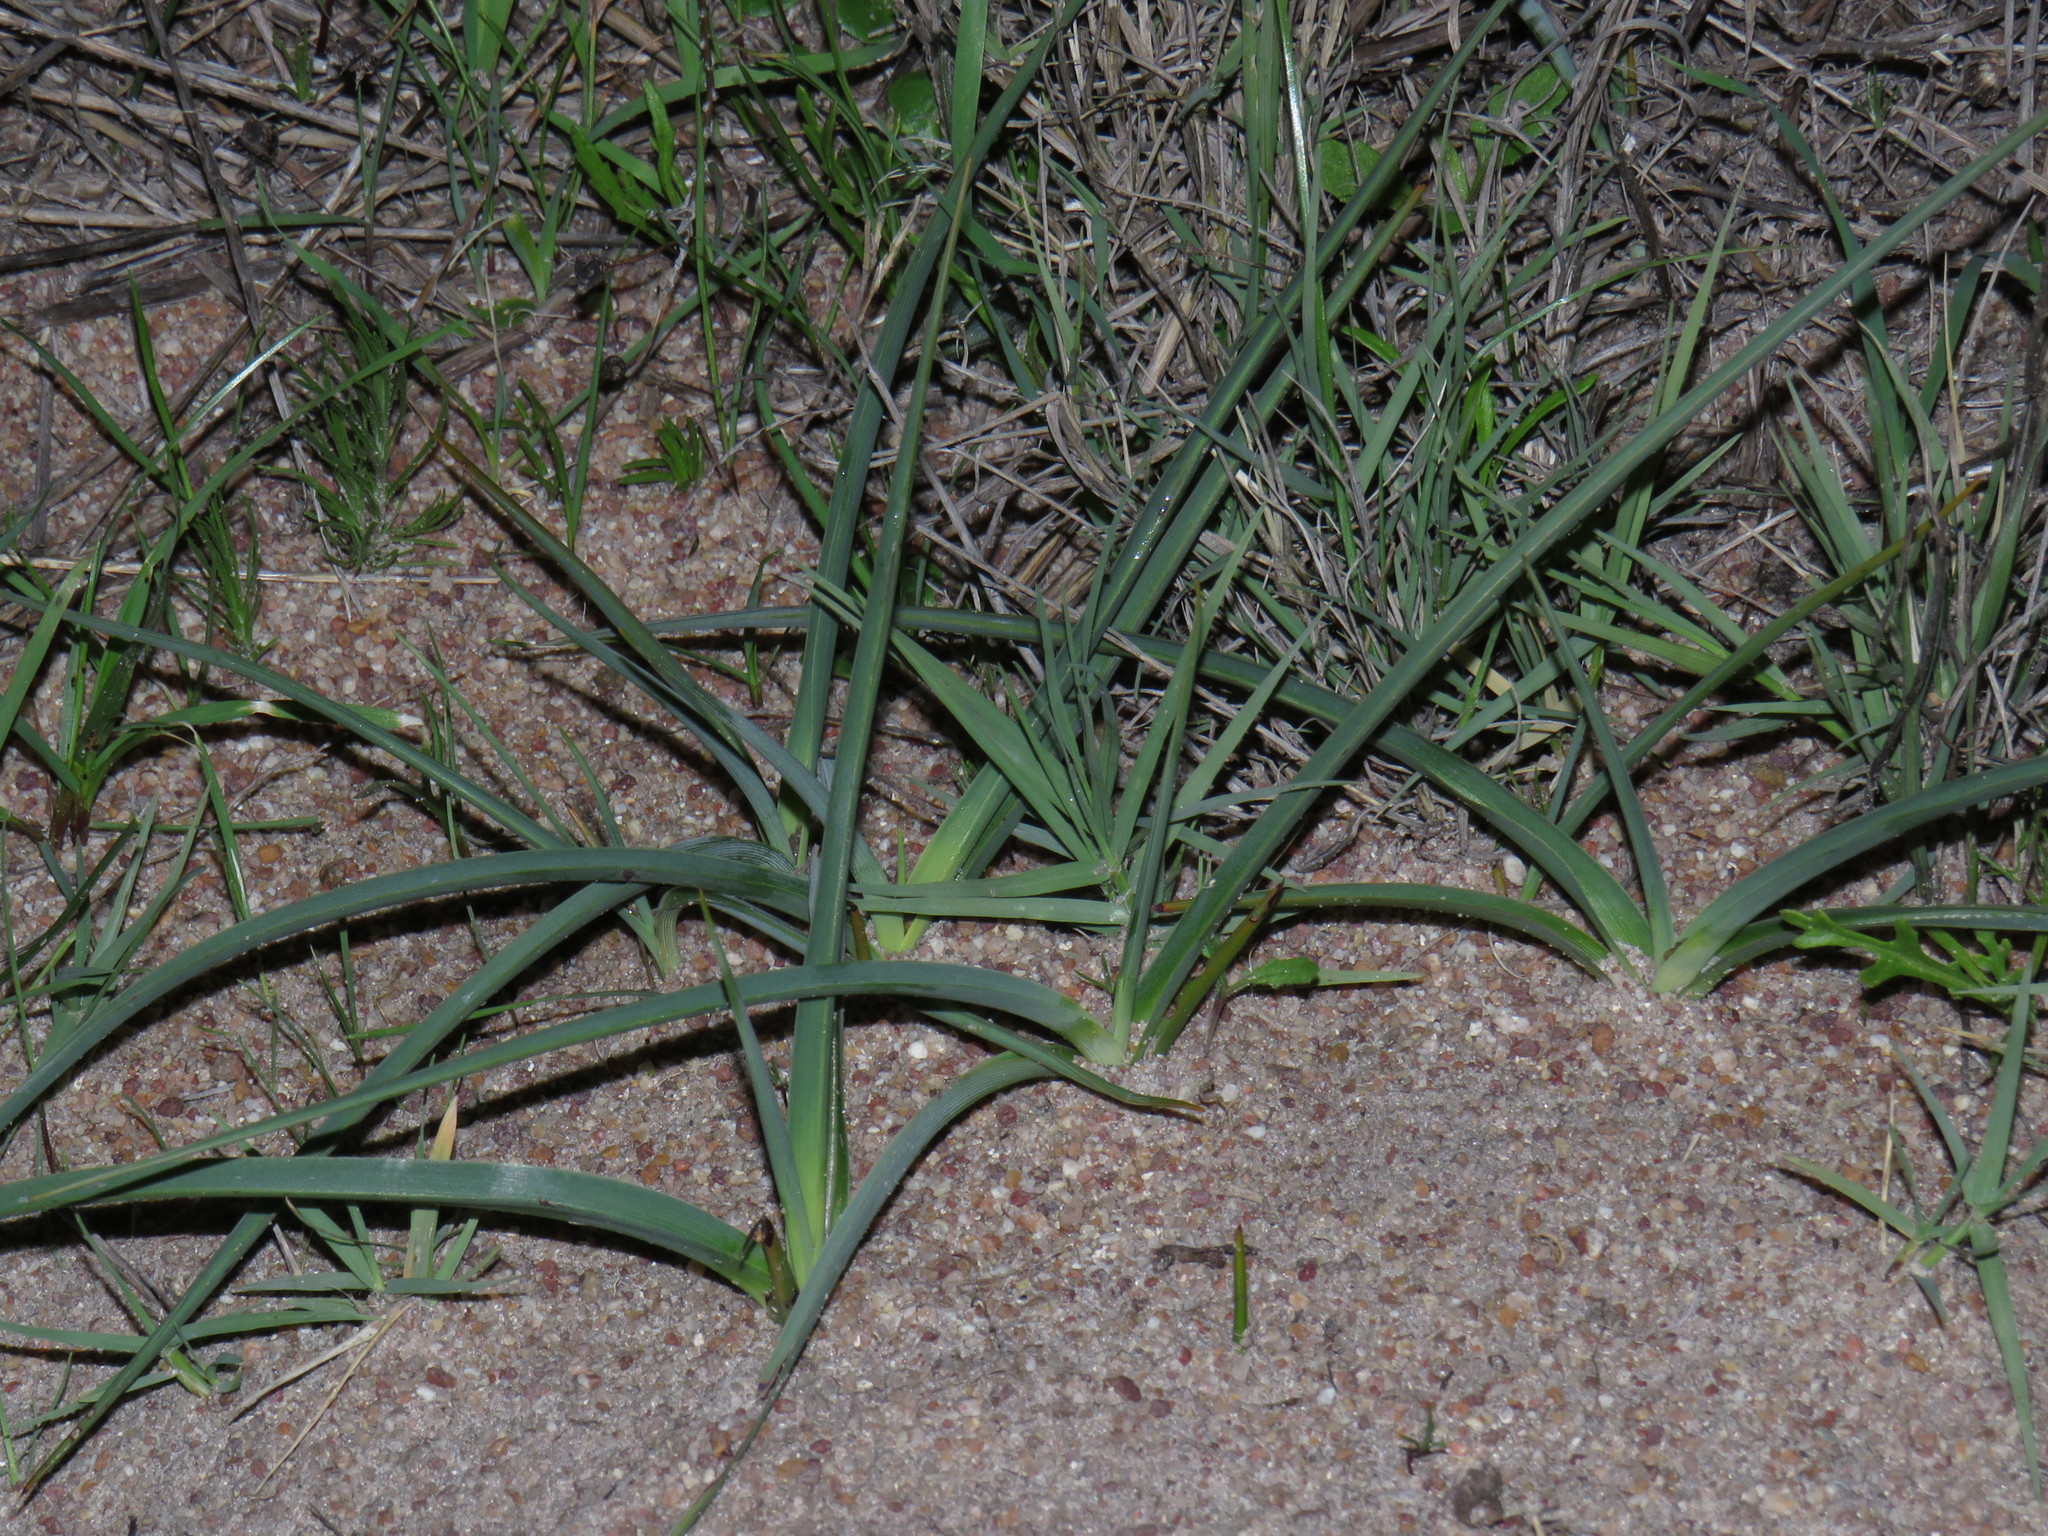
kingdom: Plantae
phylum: Tracheophyta
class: Liliopsida
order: Asparagales
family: Asparagaceae
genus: Chlorophytum
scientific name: Chlorophytum triflorum
